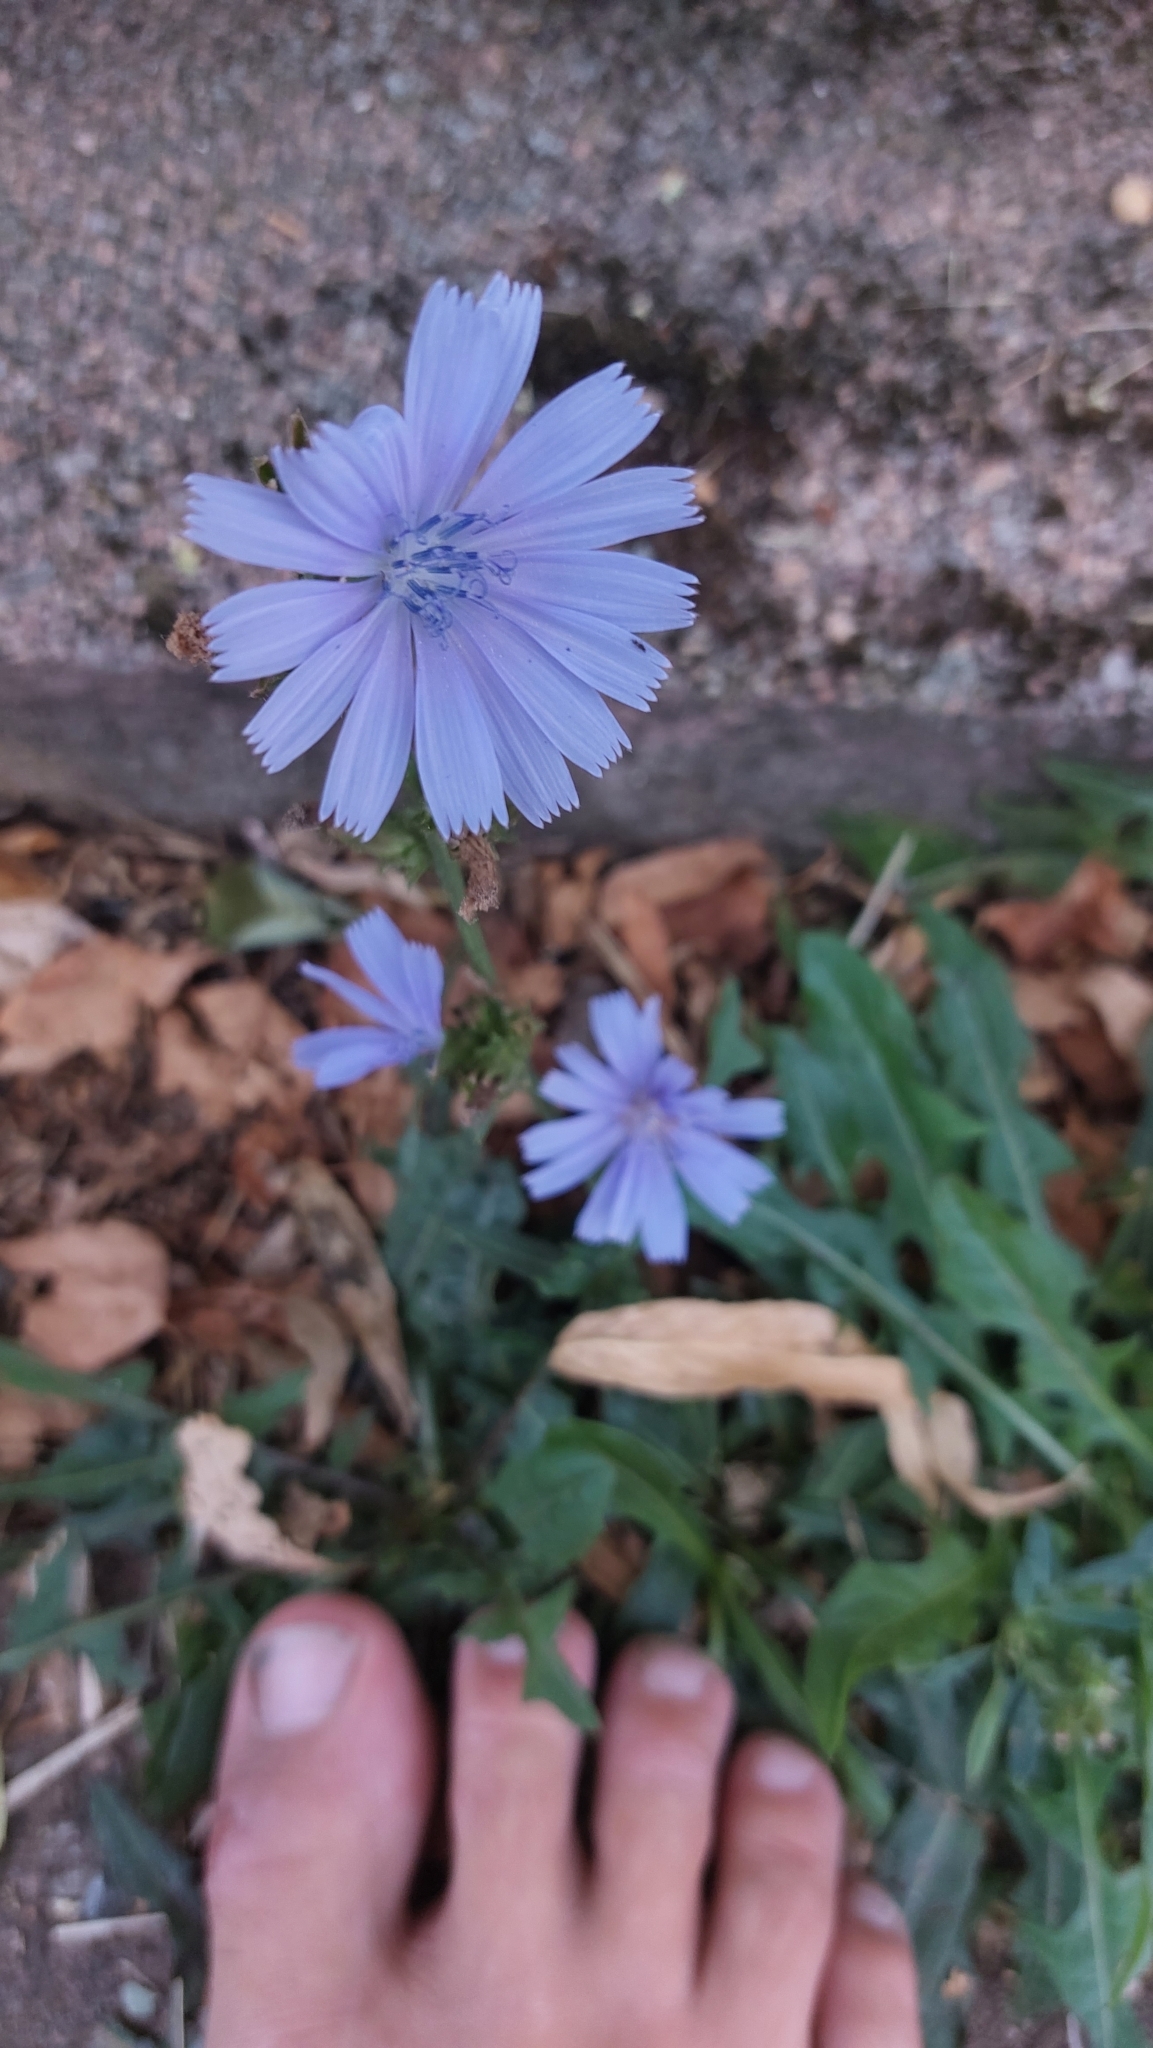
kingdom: Plantae
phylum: Tracheophyta
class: Magnoliopsida
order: Asterales
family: Asteraceae
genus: Cichorium
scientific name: Cichorium intybus
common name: Chicory
